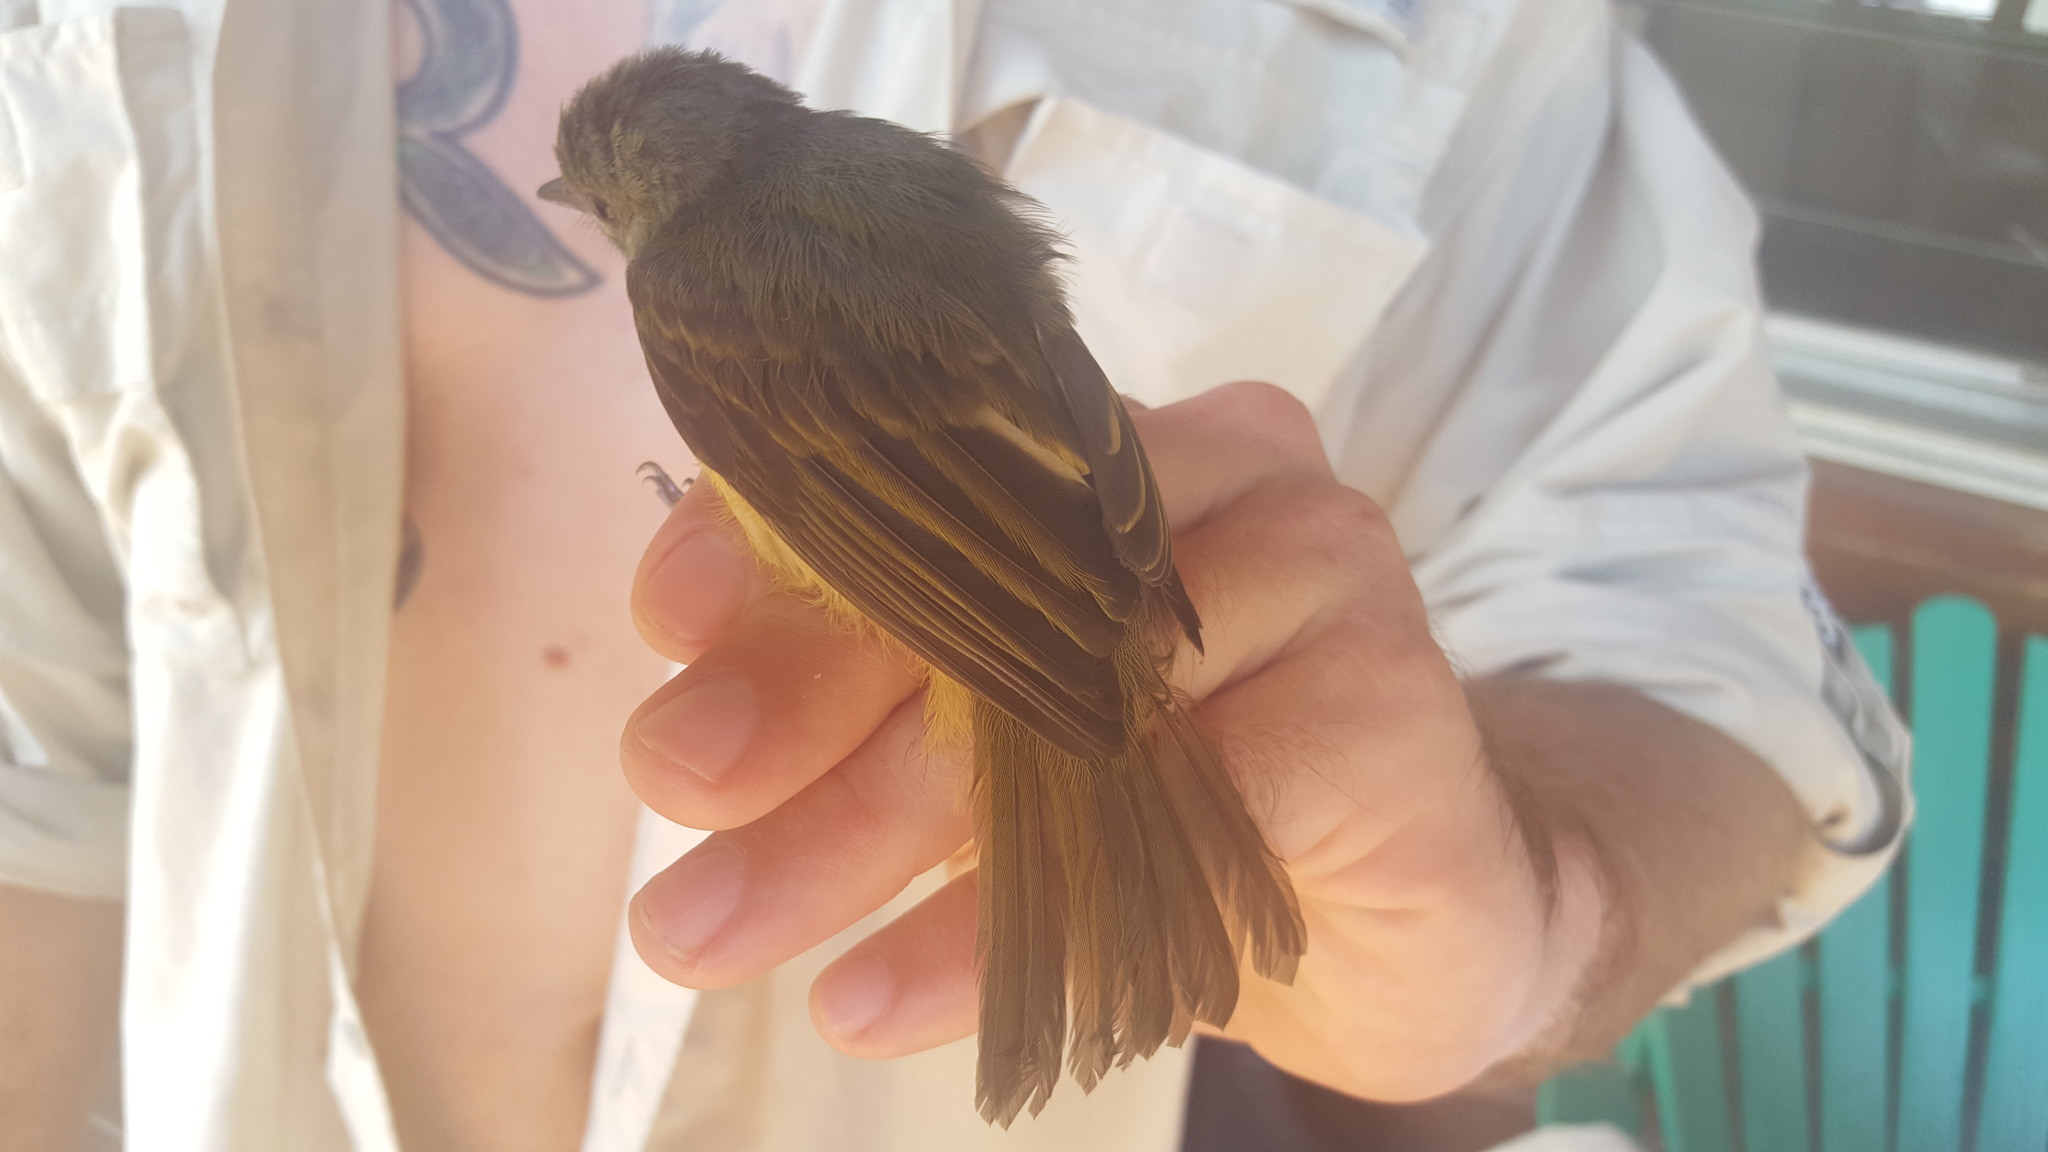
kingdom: Animalia
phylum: Chordata
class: Aves
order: Passeriformes
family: Tyrannidae
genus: Mionectes
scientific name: Mionectes oleagineus
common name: Ochre-bellied flycatcher
